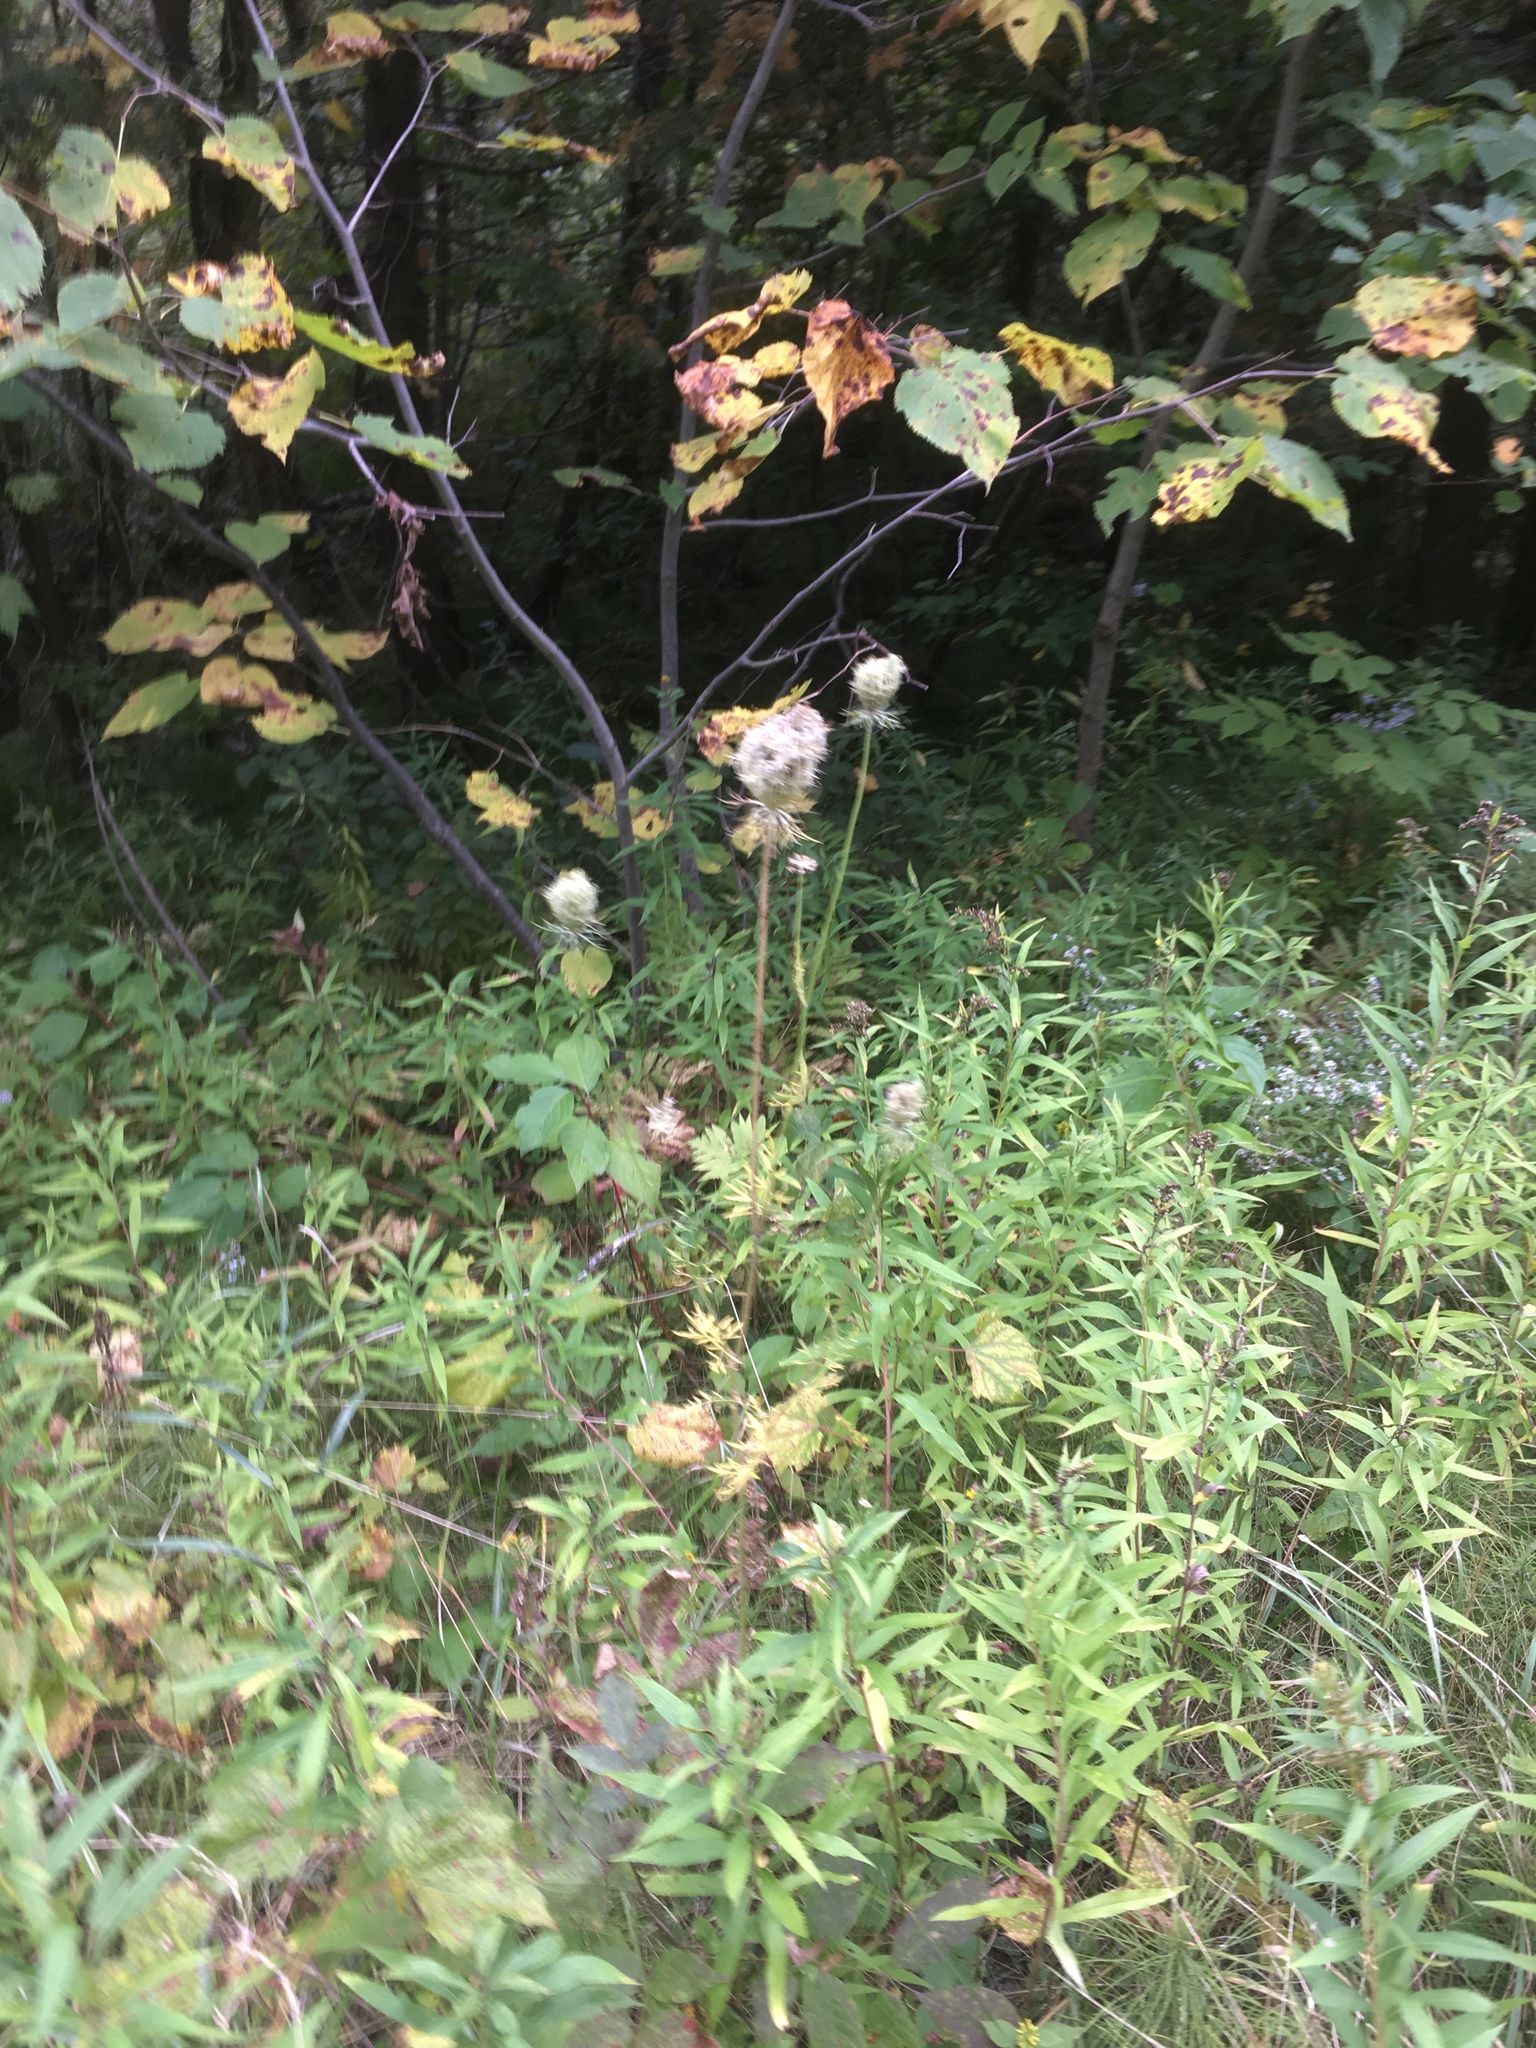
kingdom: Plantae
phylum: Tracheophyta
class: Magnoliopsida
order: Apiales
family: Apiaceae
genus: Daucus
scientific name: Daucus carota
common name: Wild carrot
